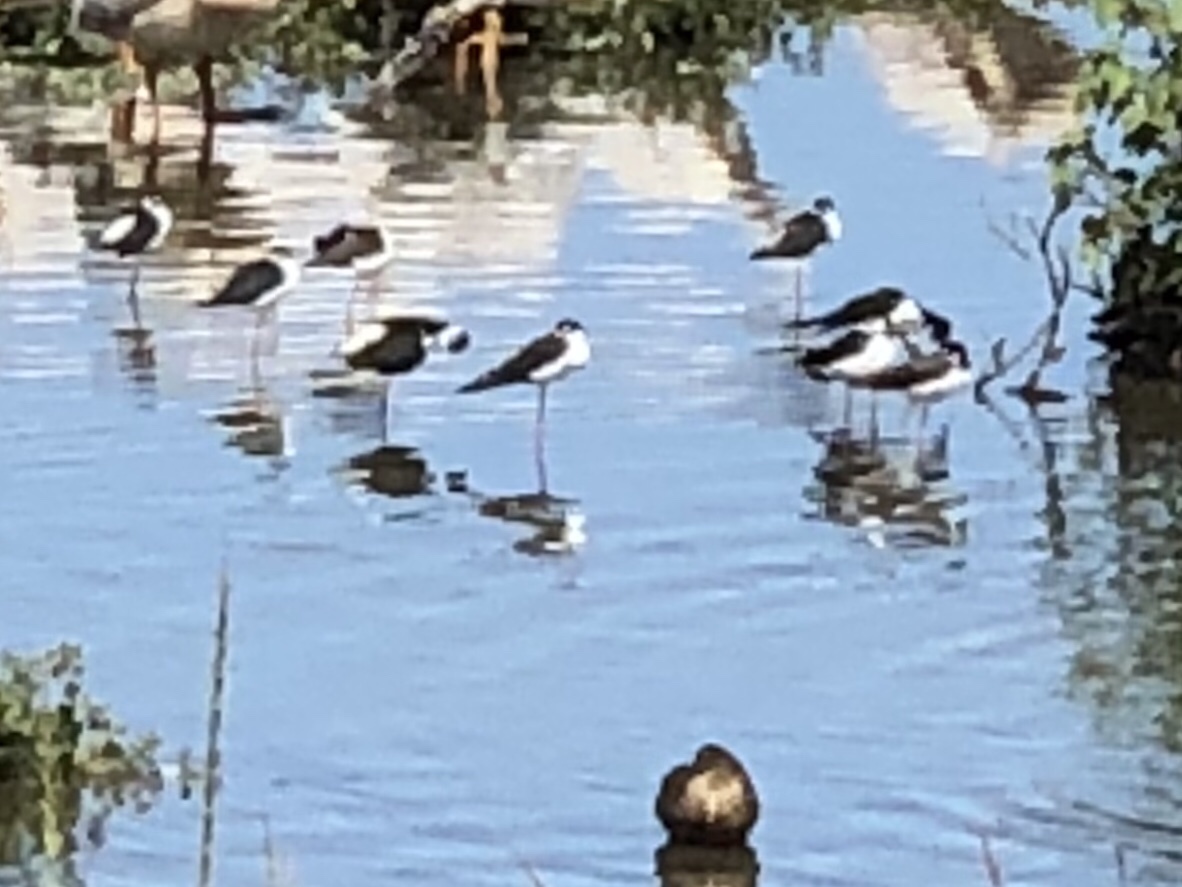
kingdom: Animalia
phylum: Chordata
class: Aves
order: Charadriiformes
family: Recurvirostridae
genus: Himantopus
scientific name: Himantopus mexicanus
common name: Black-necked stilt
